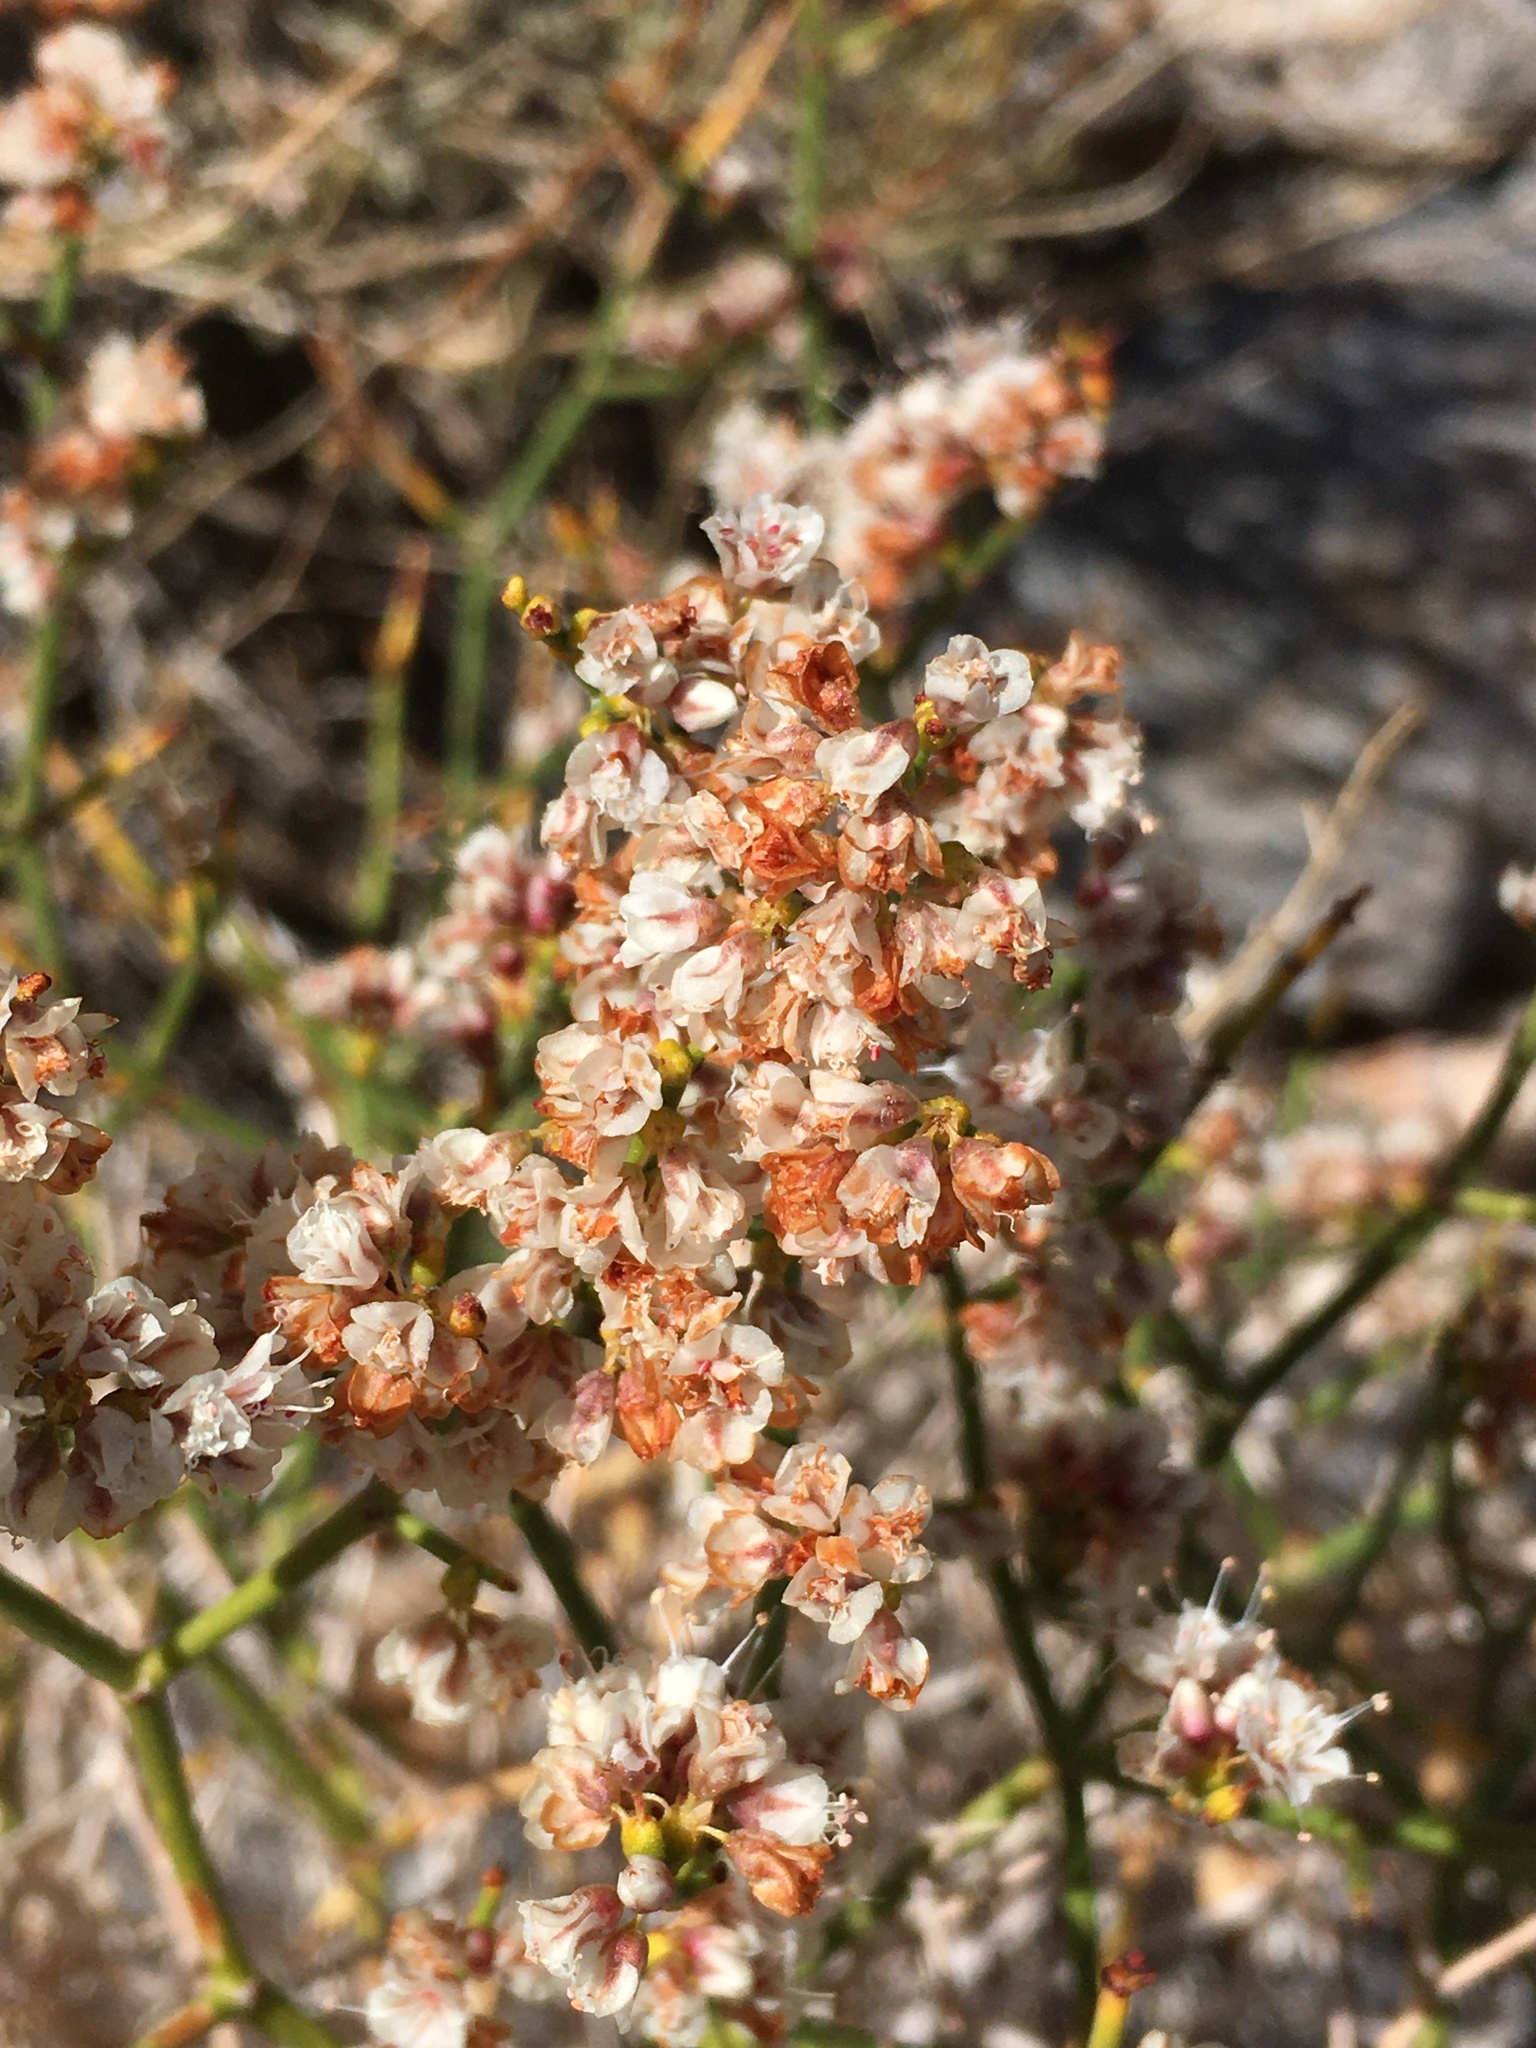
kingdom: Plantae
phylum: Tracheophyta
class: Magnoliopsida
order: Caryophyllales
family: Polygonaceae
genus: Eriogonum
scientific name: Eriogonum heermannii
